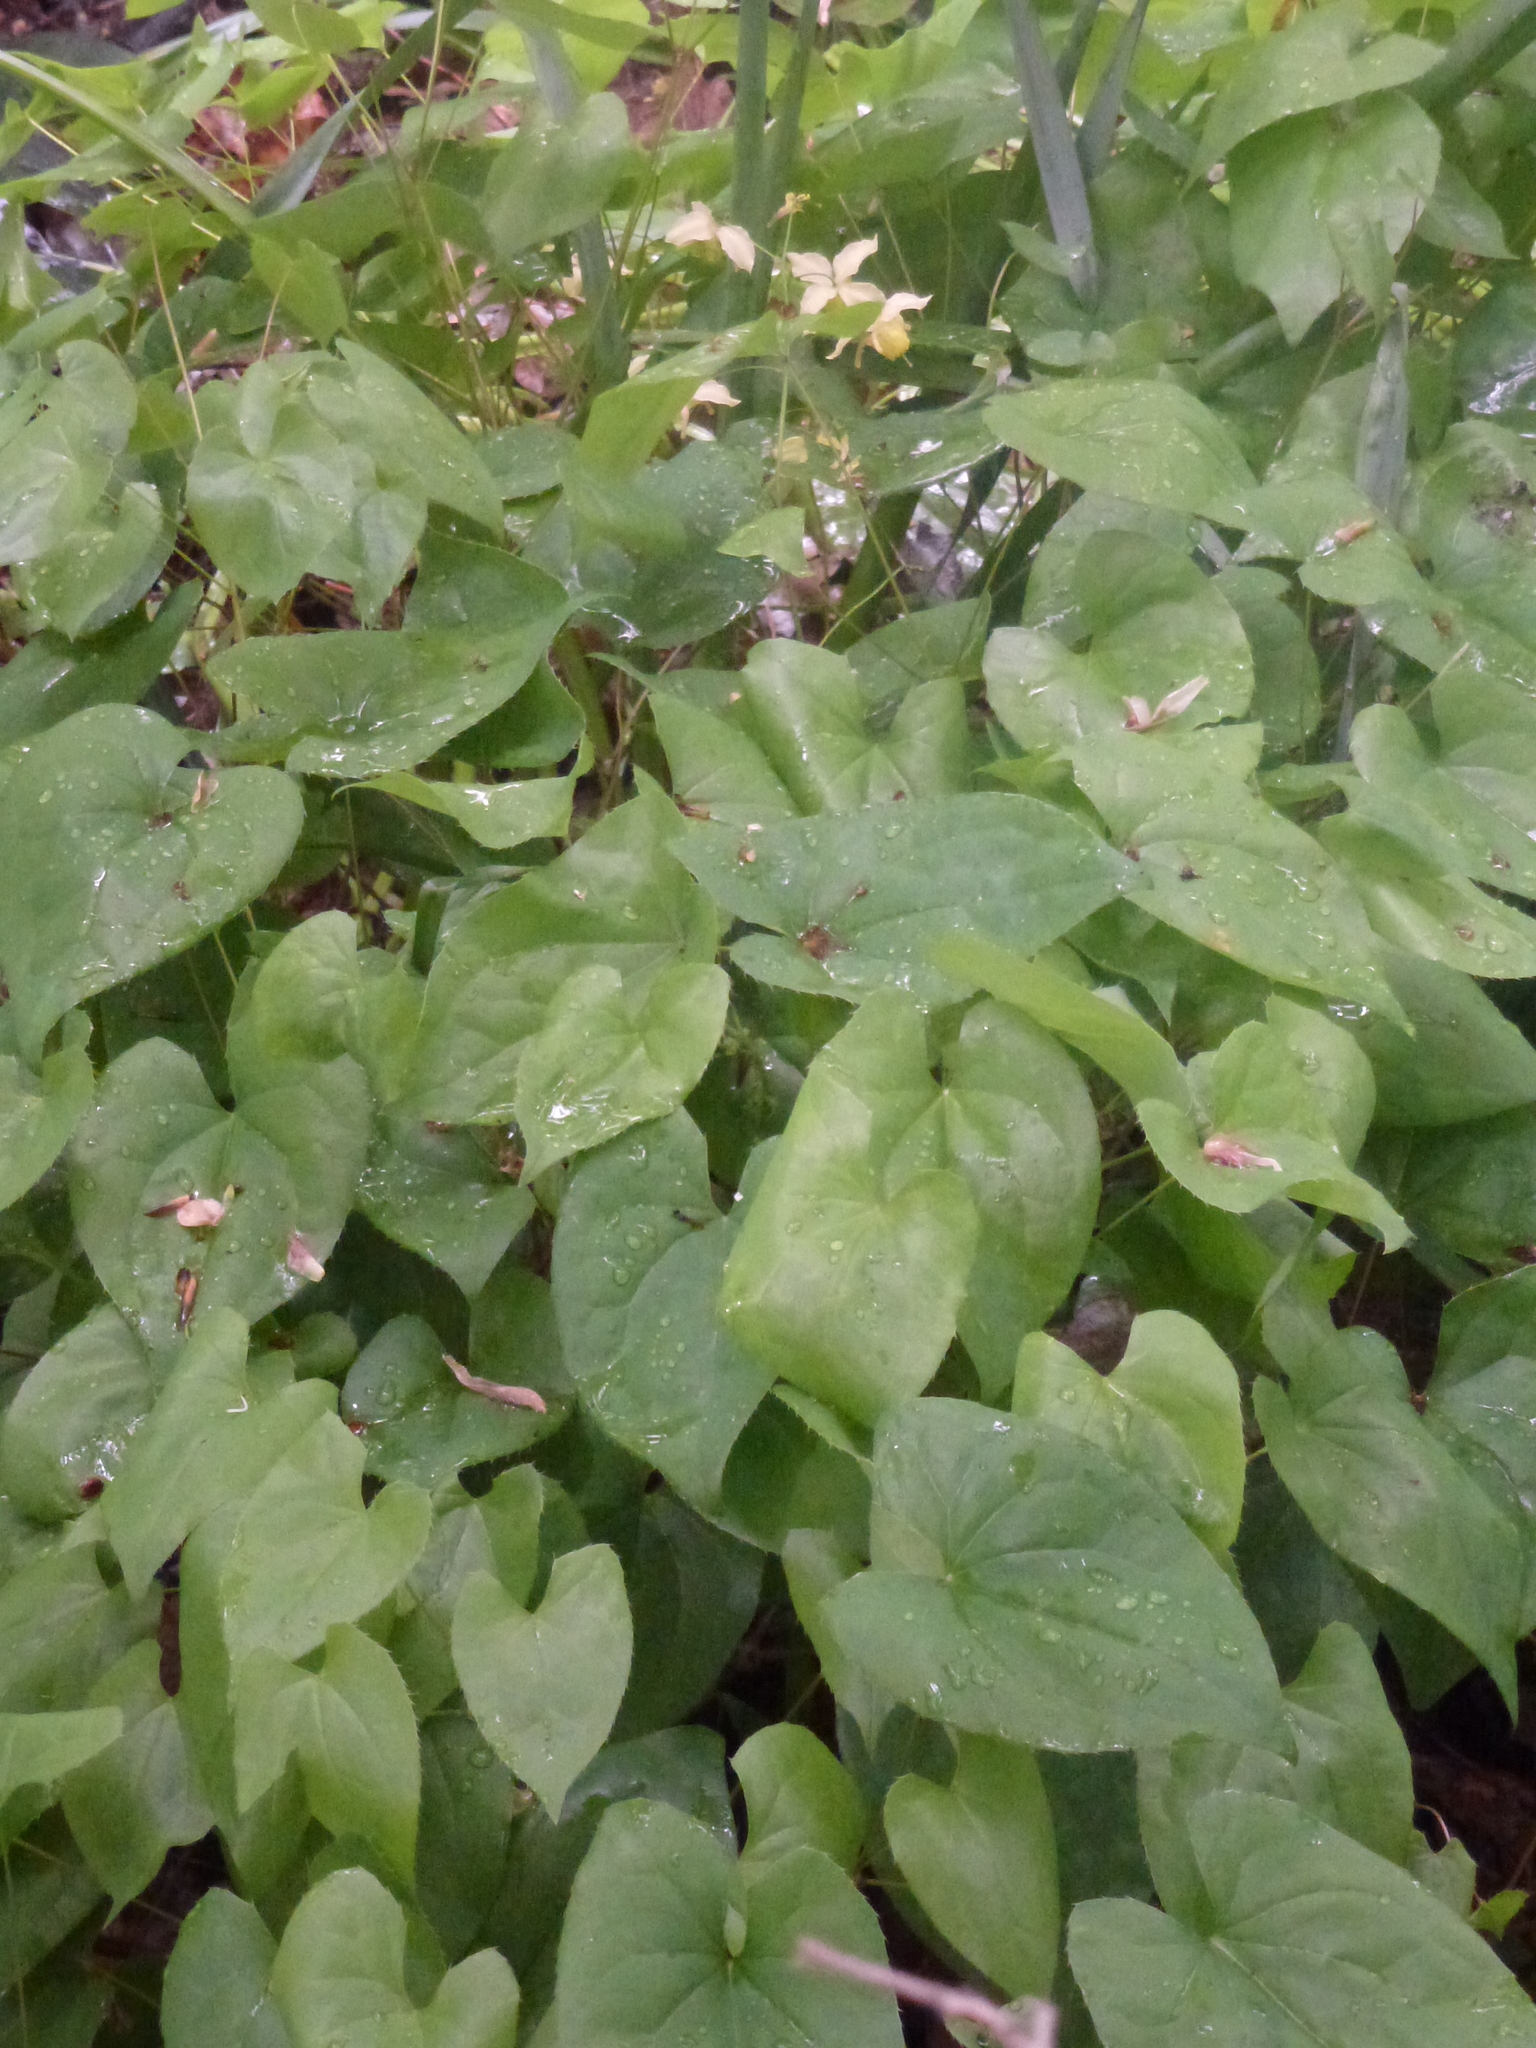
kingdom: Plantae
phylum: Tracheophyta
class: Magnoliopsida
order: Ranunculales
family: Berberidaceae
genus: Epimedium
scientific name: Epimedium versicolor
